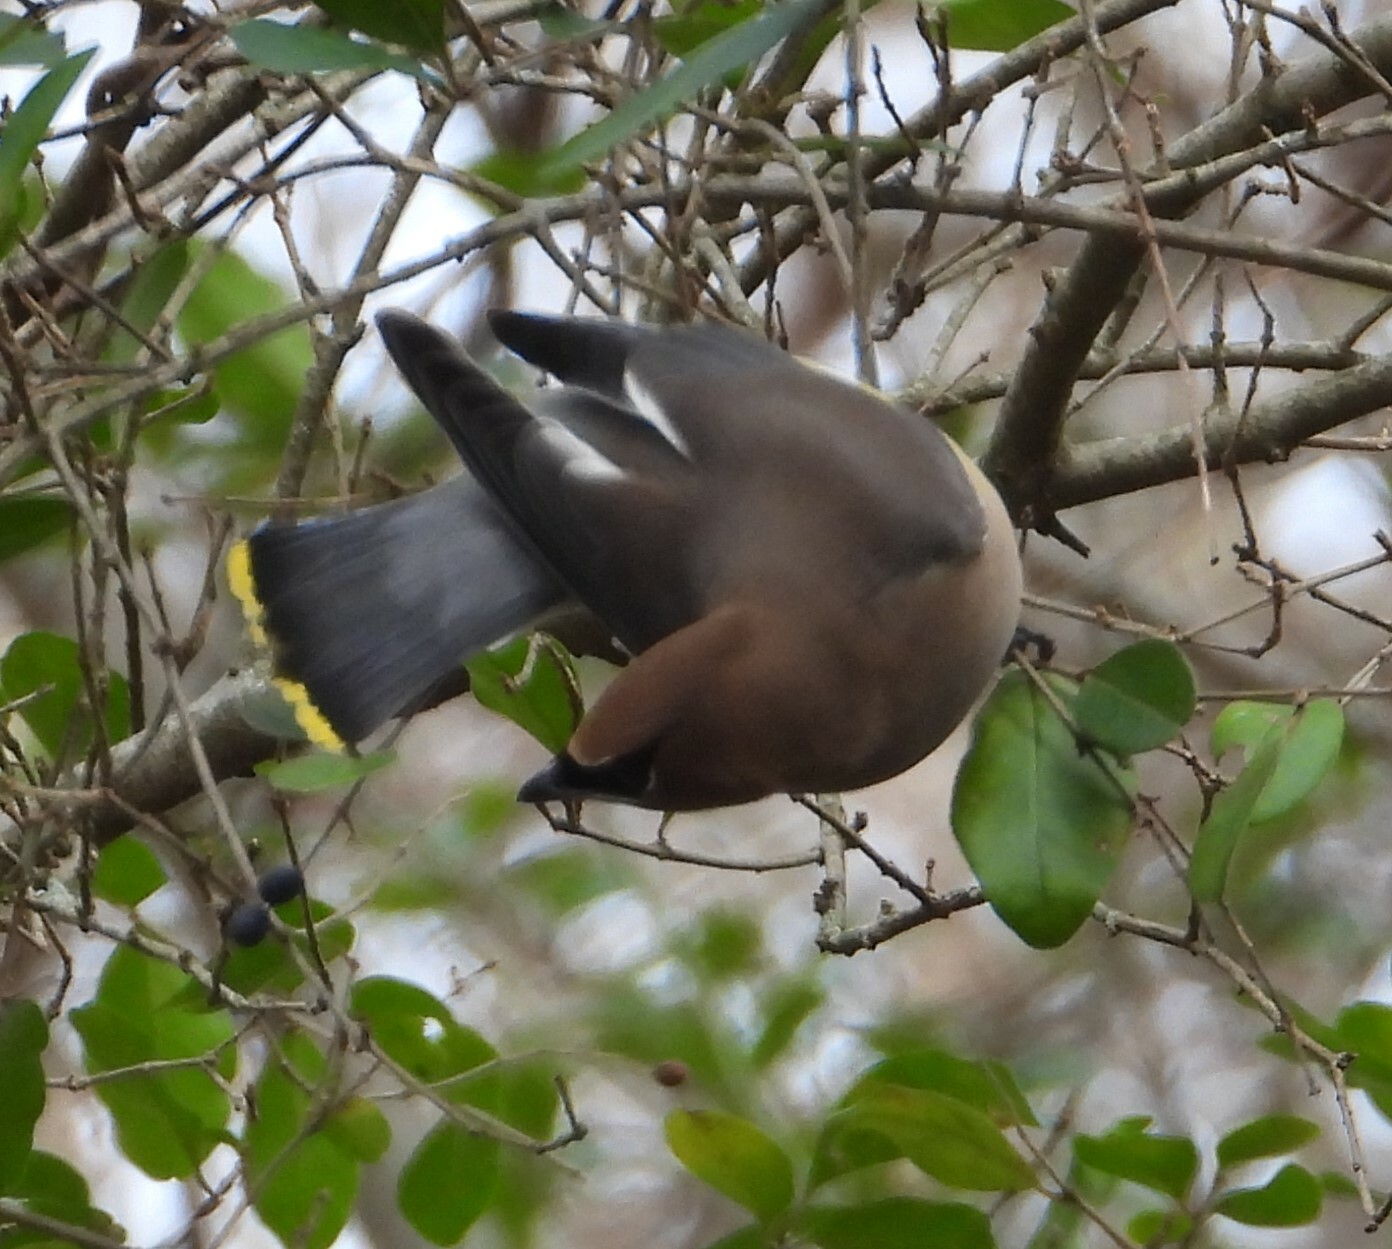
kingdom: Animalia
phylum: Chordata
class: Aves
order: Passeriformes
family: Bombycillidae
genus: Bombycilla
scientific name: Bombycilla cedrorum
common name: Cedar waxwing
